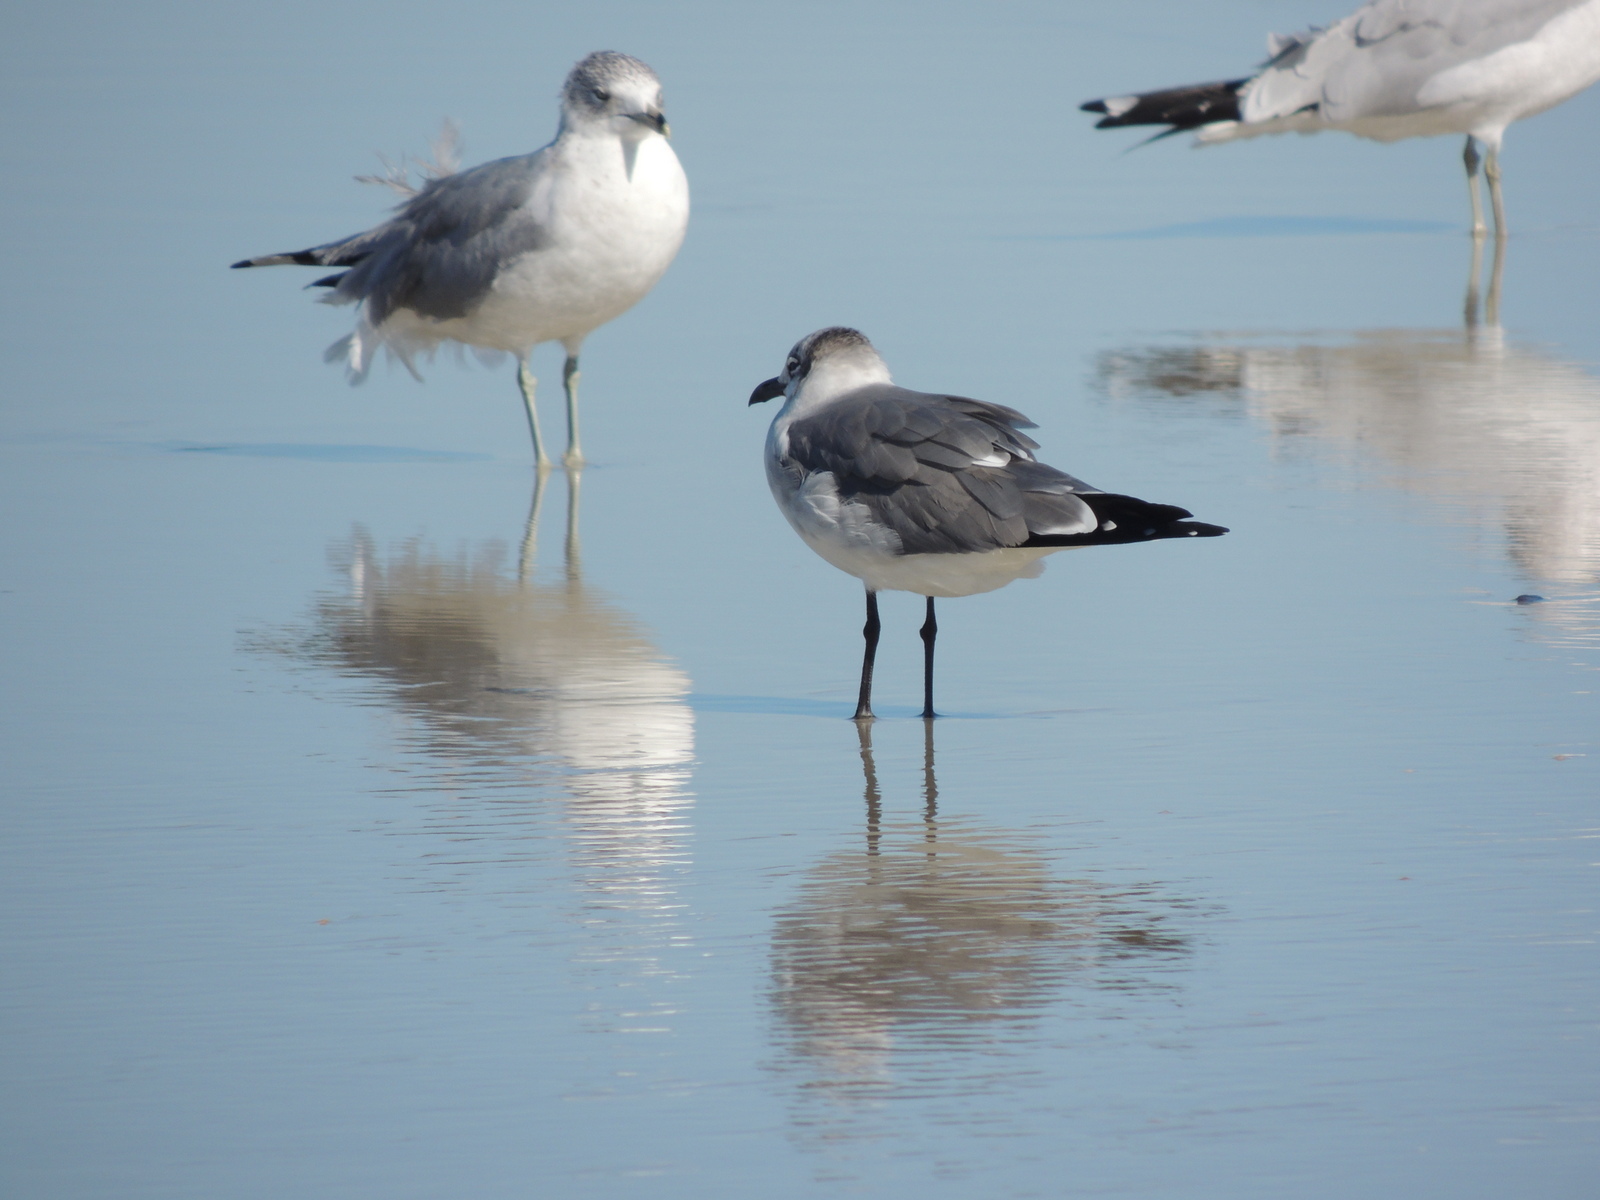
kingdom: Animalia
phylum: Chordata
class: Aves
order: Charadriiformes
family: Laridae
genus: Leucophaeus
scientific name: Leucophaeus atricilla
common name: Laughing gull
